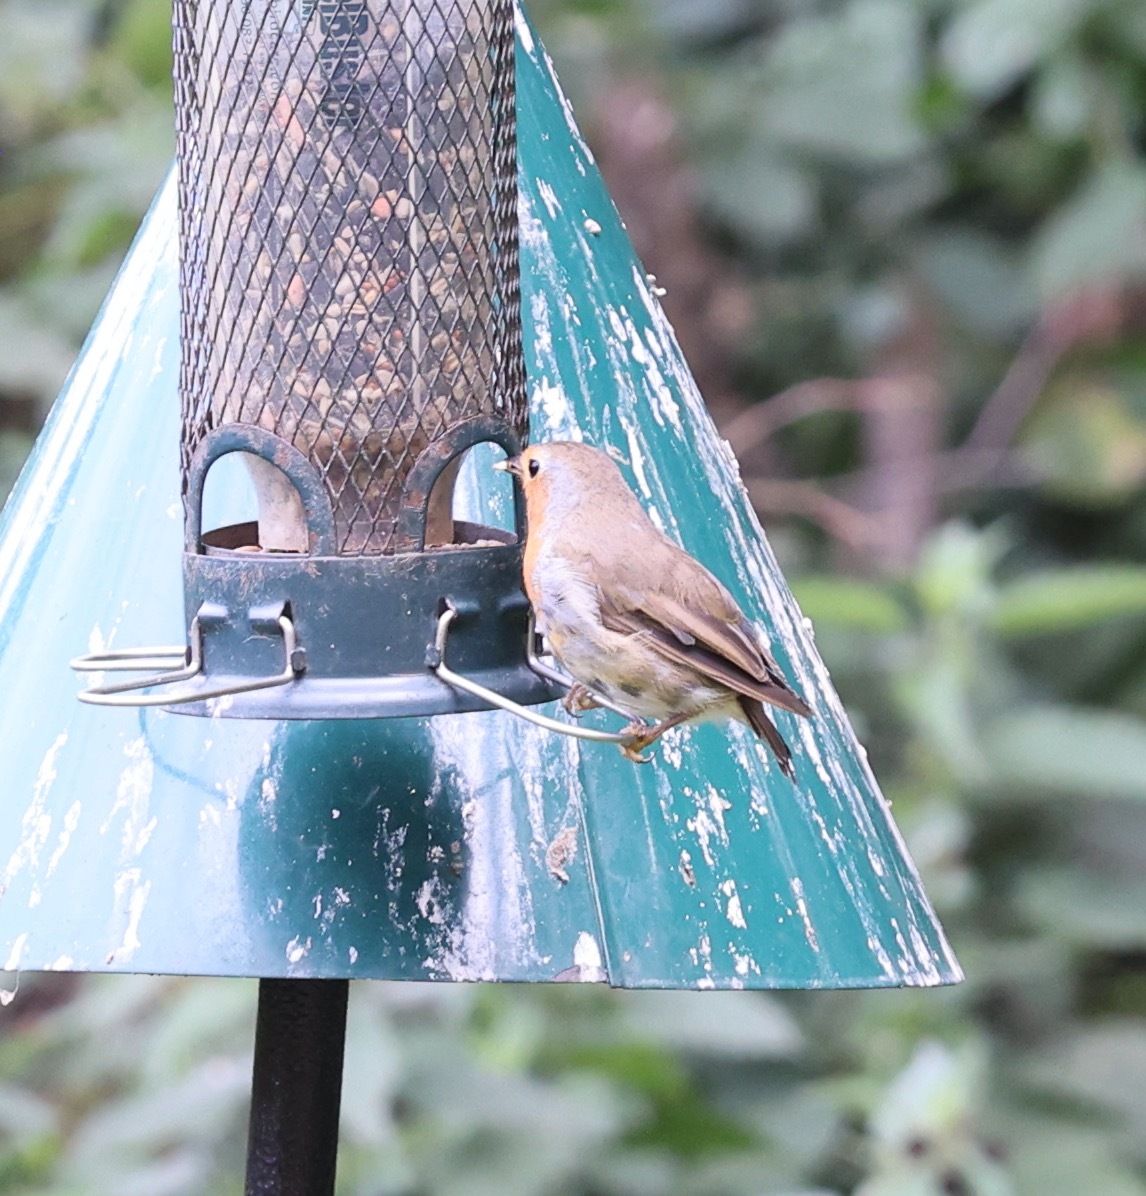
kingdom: Animalia
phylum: Chordata
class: Aves
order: Passeriformes
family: Muscicapidae
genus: Erithacus
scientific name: Erithacus rubecula
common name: European robin
